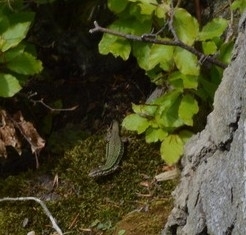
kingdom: Animalia
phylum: Chordata
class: Squamata
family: Lacertidae
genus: Podarcis
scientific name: Podarcis muralis
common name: Common wall lizard
